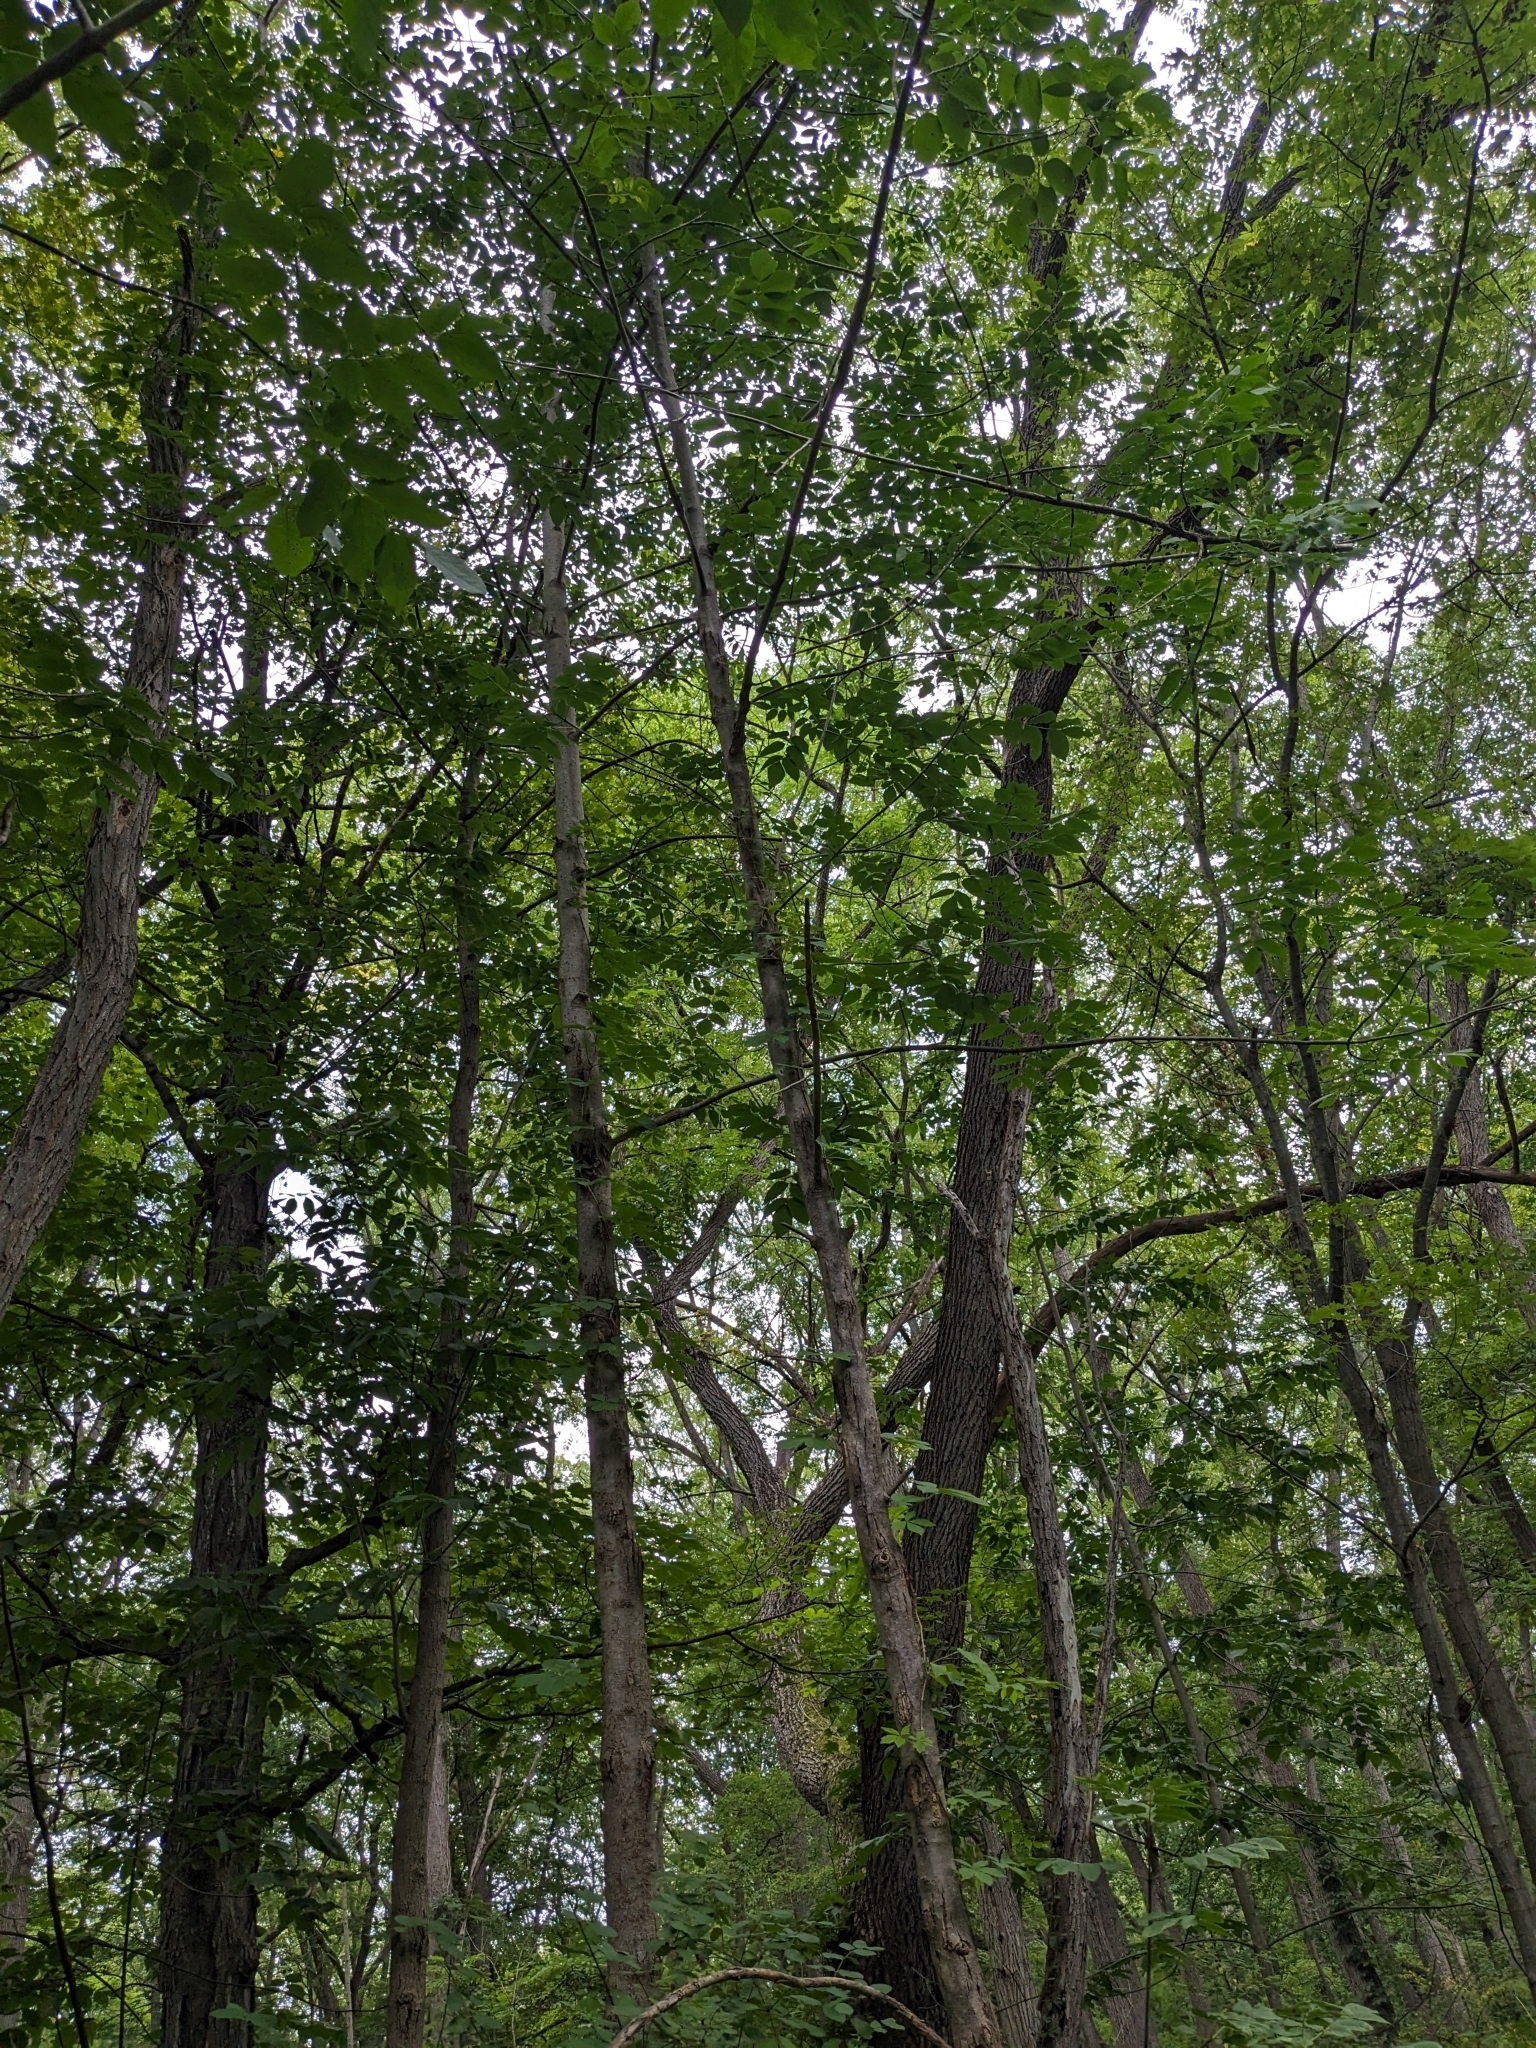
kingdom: Plantae
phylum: Tracheophyta
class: Magnoliopsida
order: Lamiales
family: Oleaceae
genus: Fraxinus
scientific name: Fraxinus americana
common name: White ash
